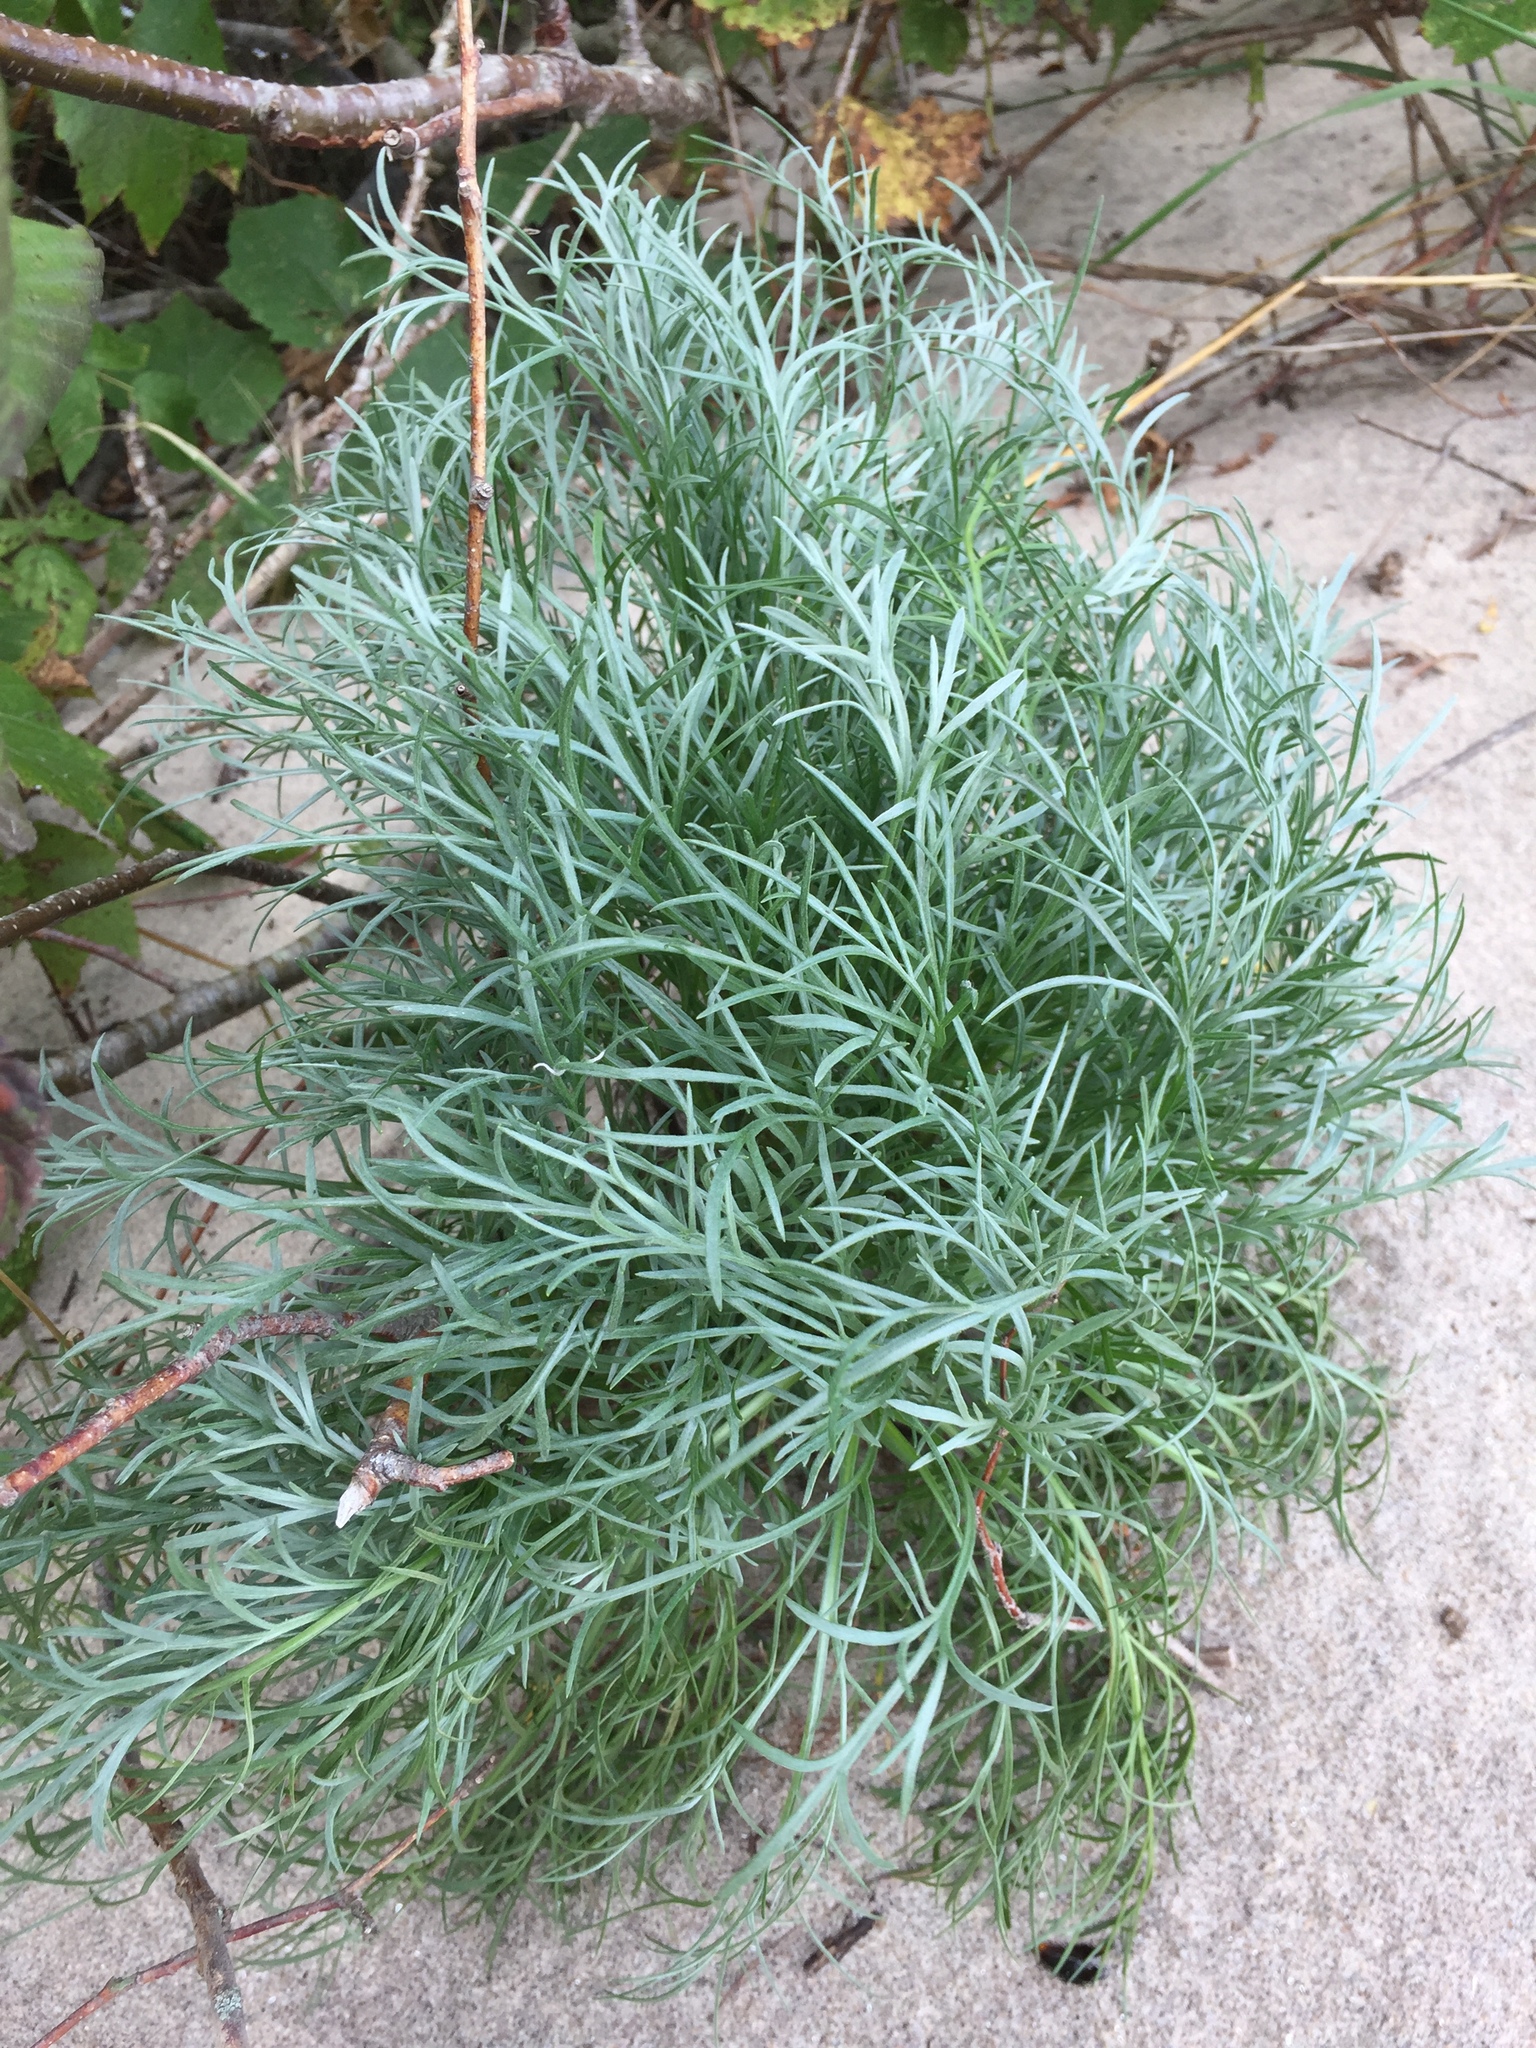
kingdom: Plantae
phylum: Tracheophyta
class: Magnoliopsida
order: Asterales
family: Asteraceae
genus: Artemisia
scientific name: Artemisia campestris
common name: Field wormwood
